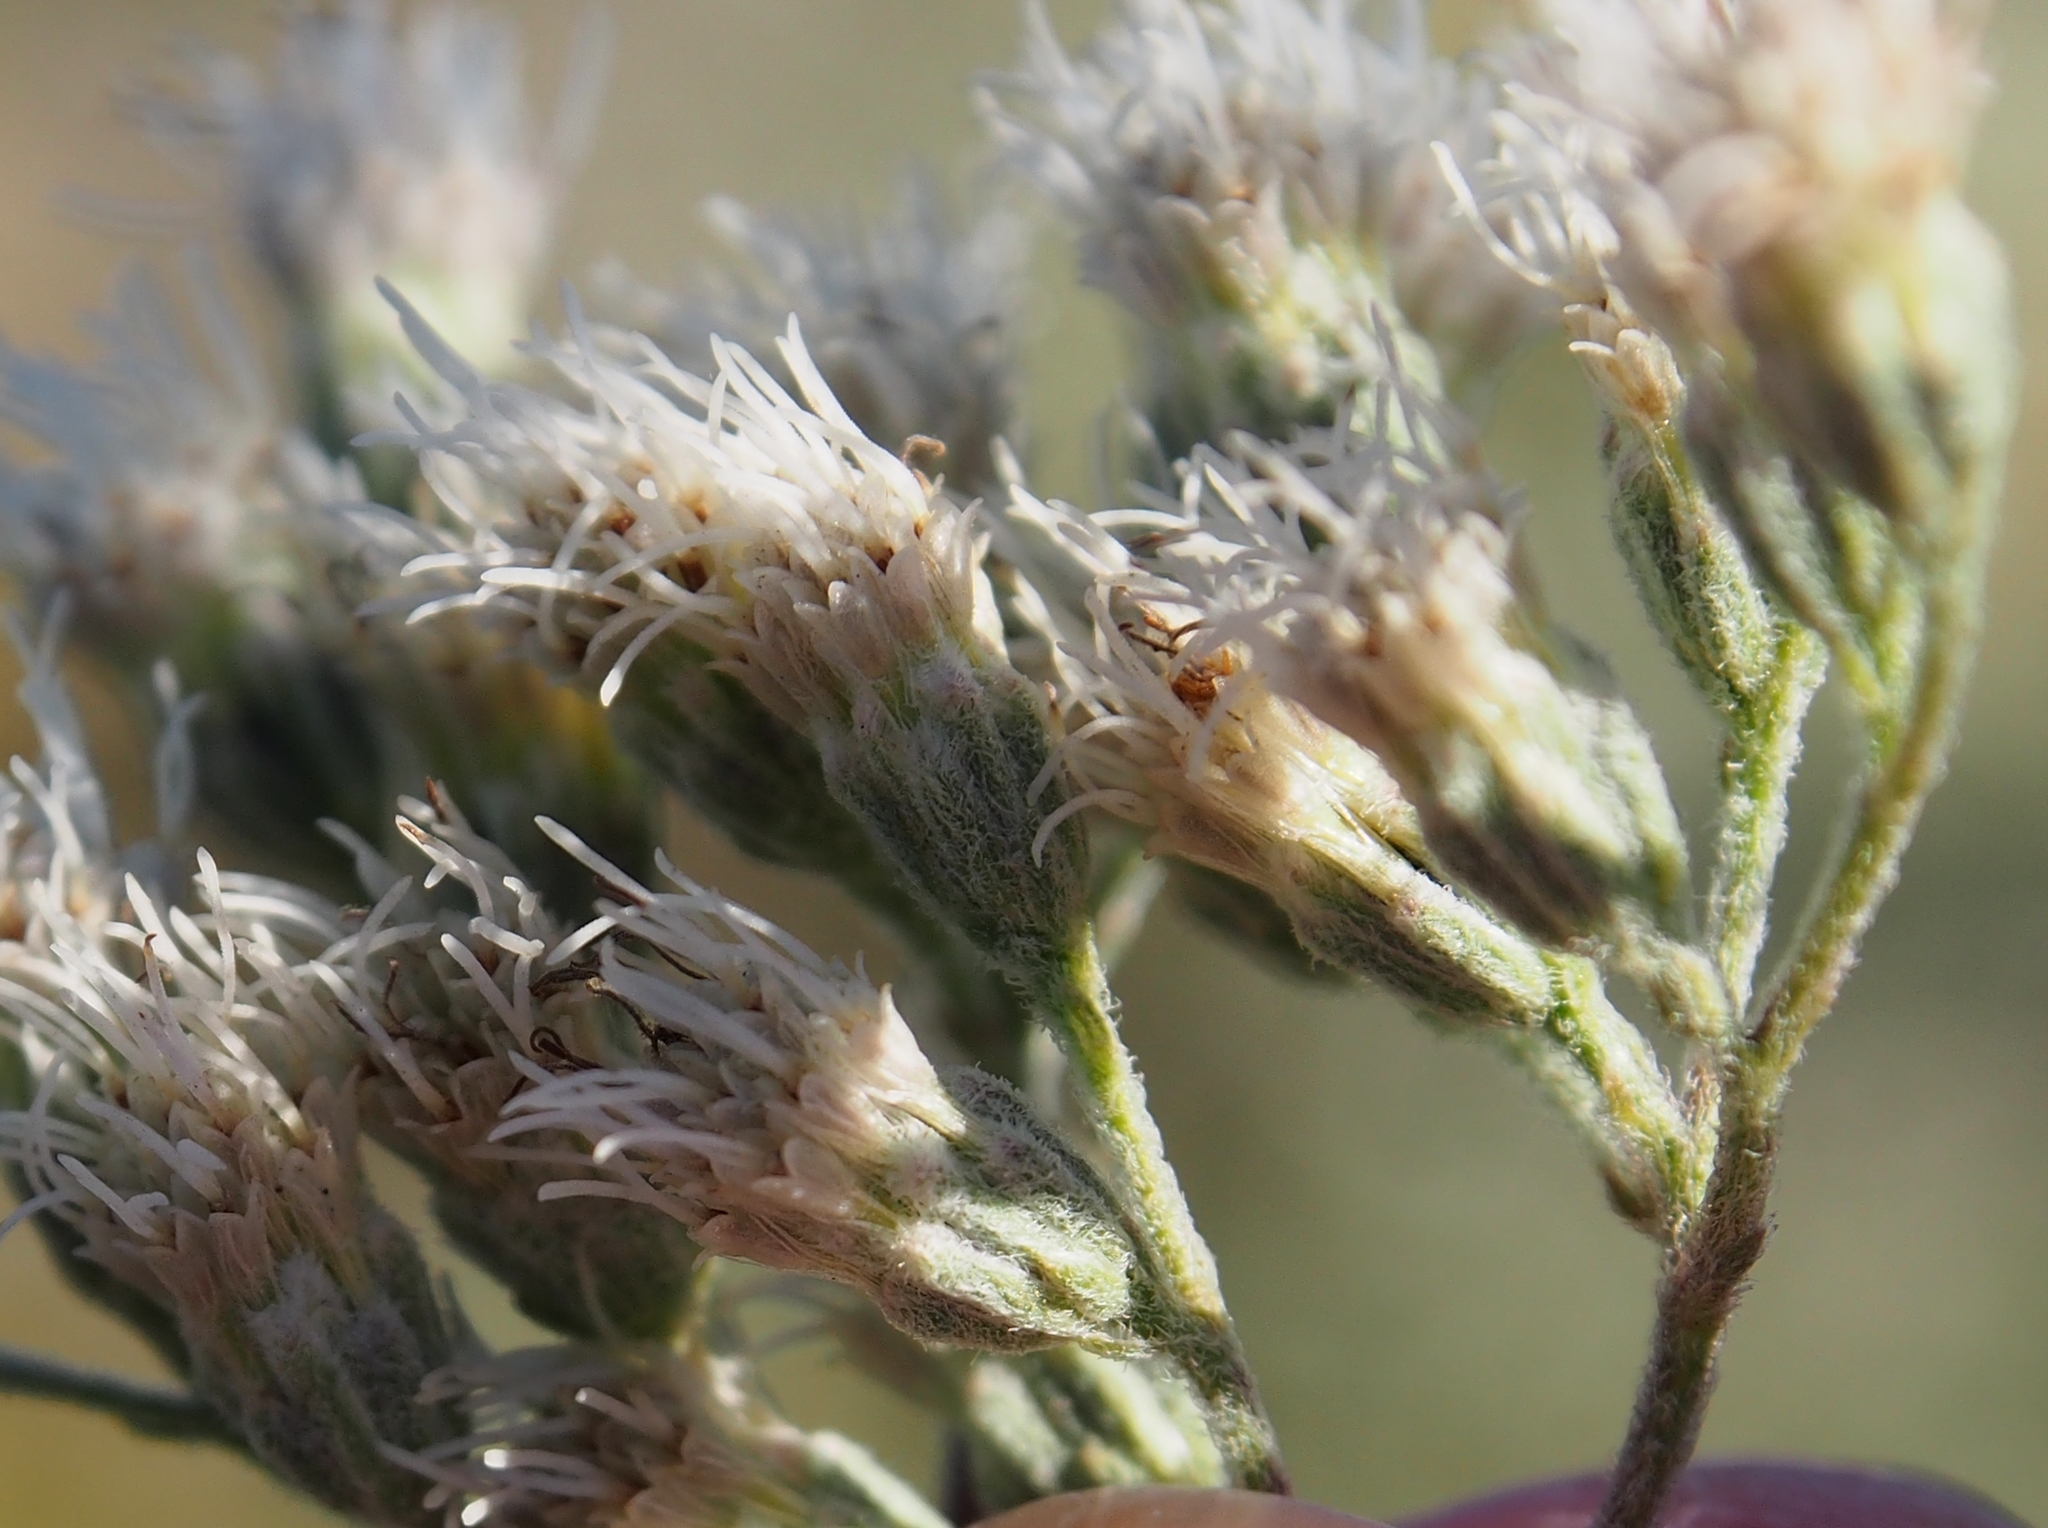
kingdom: Plantae
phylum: Tracheophyta
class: Magnoliopsida
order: Asterales
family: Asteraceae
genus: Eupatorium
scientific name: Eupatorium serotinum
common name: Late boneset
